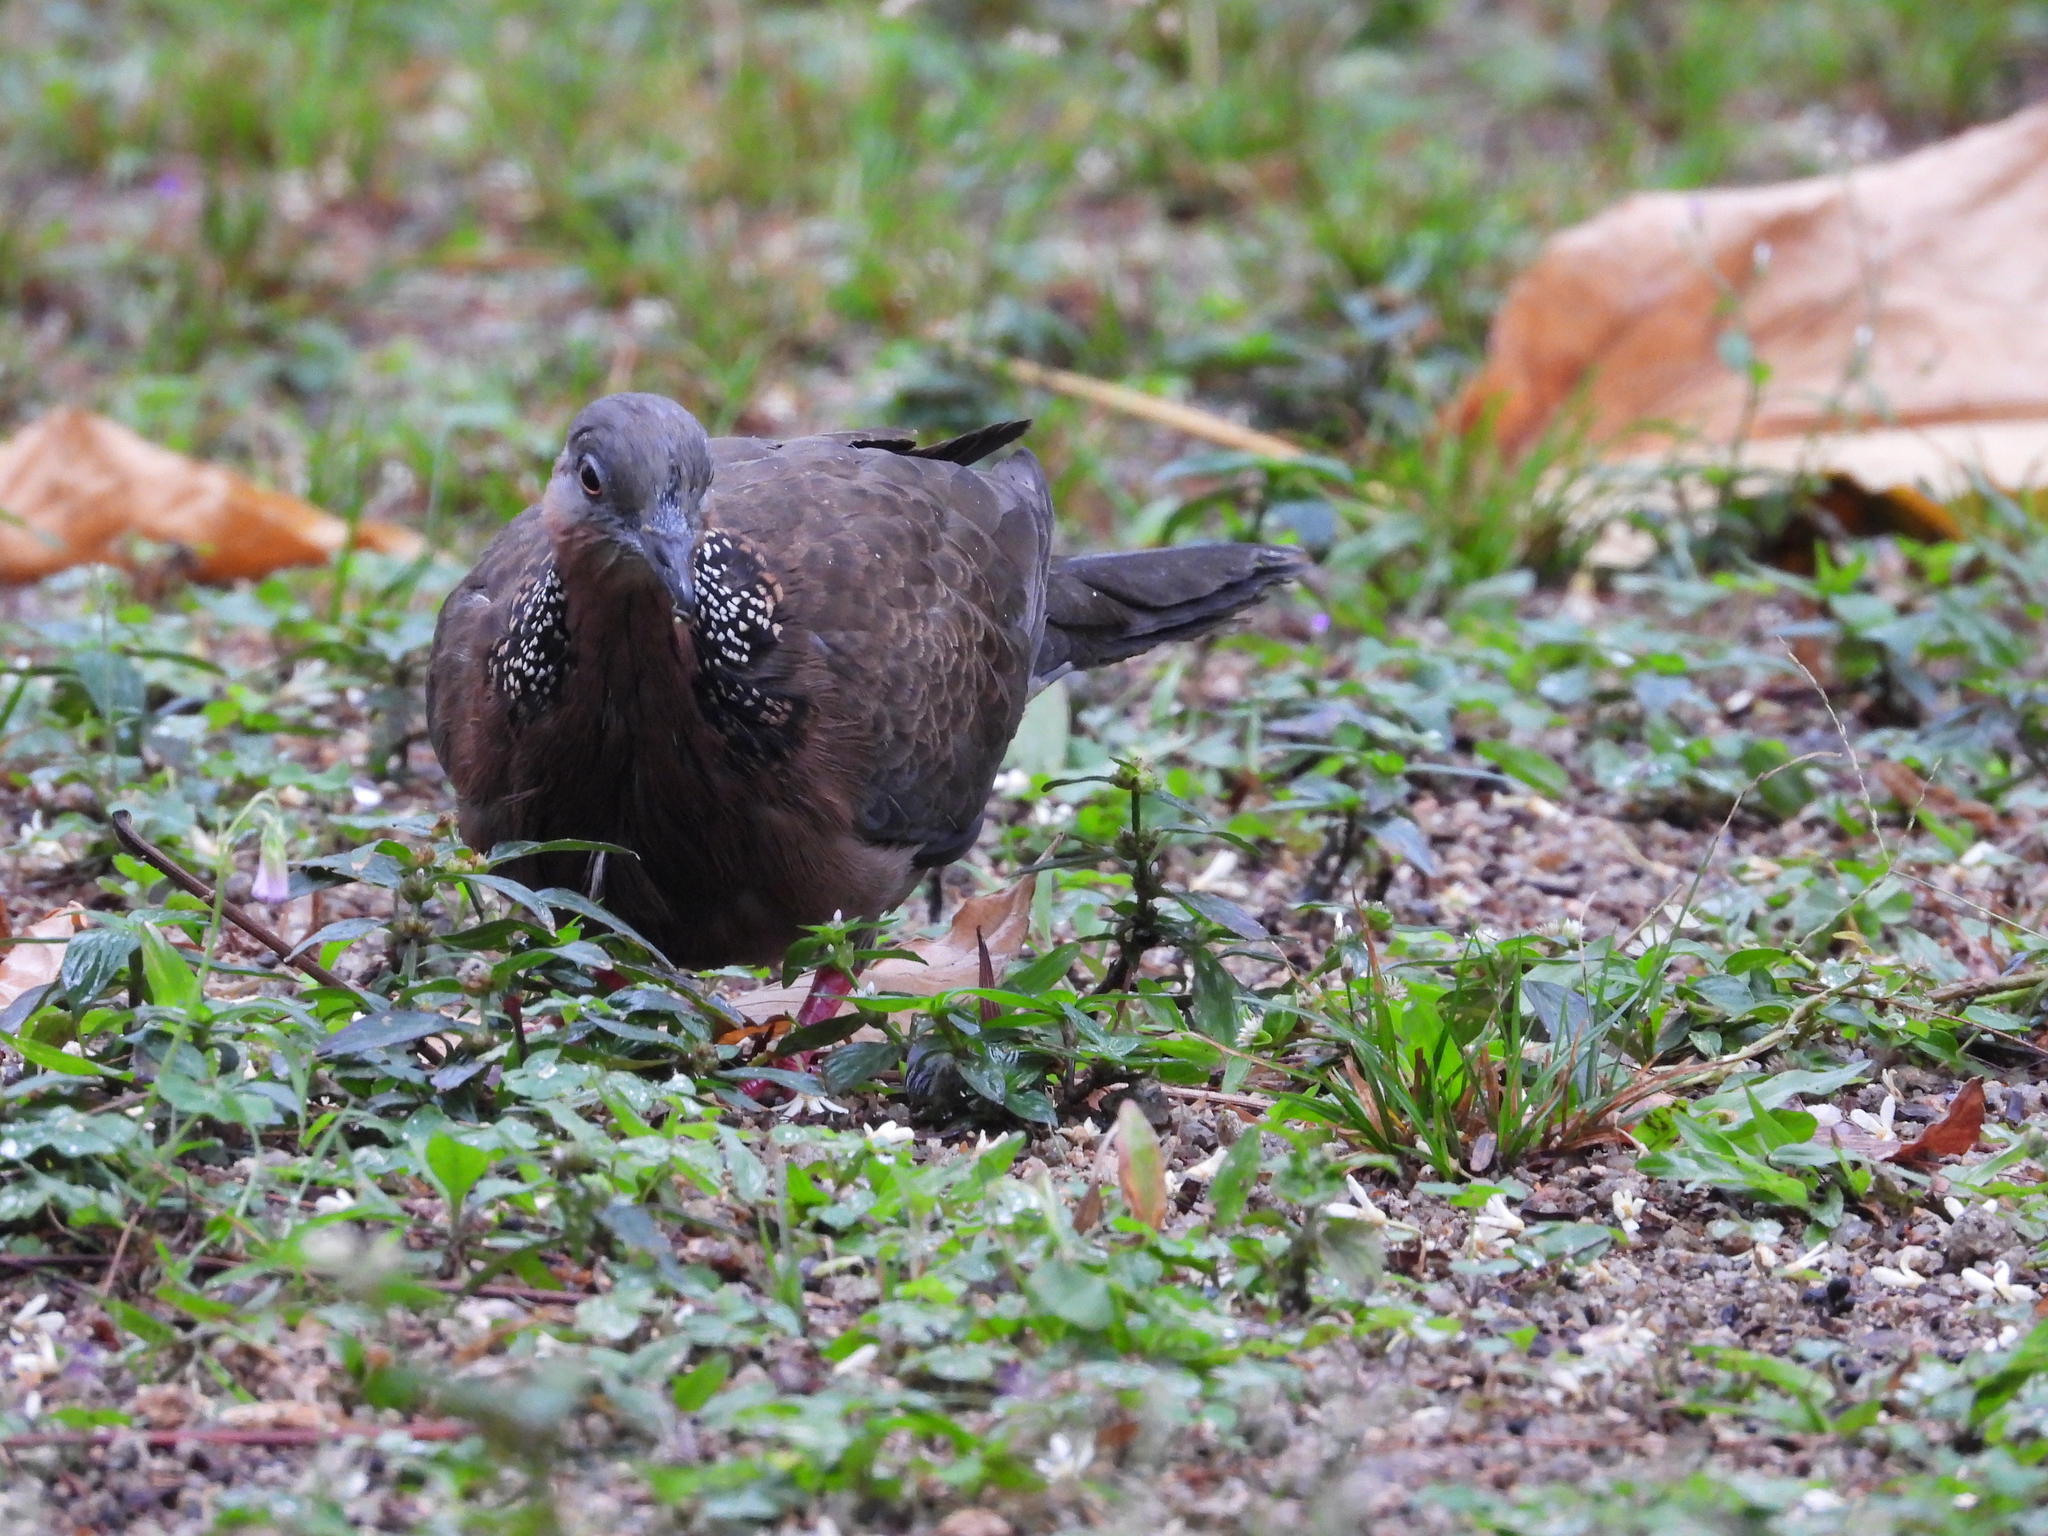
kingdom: Animalia
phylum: Chordata
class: Aves
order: Columbiformes
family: Columbidae
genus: Spilopelia
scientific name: Spilopelia chinensis
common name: Spotted dove
